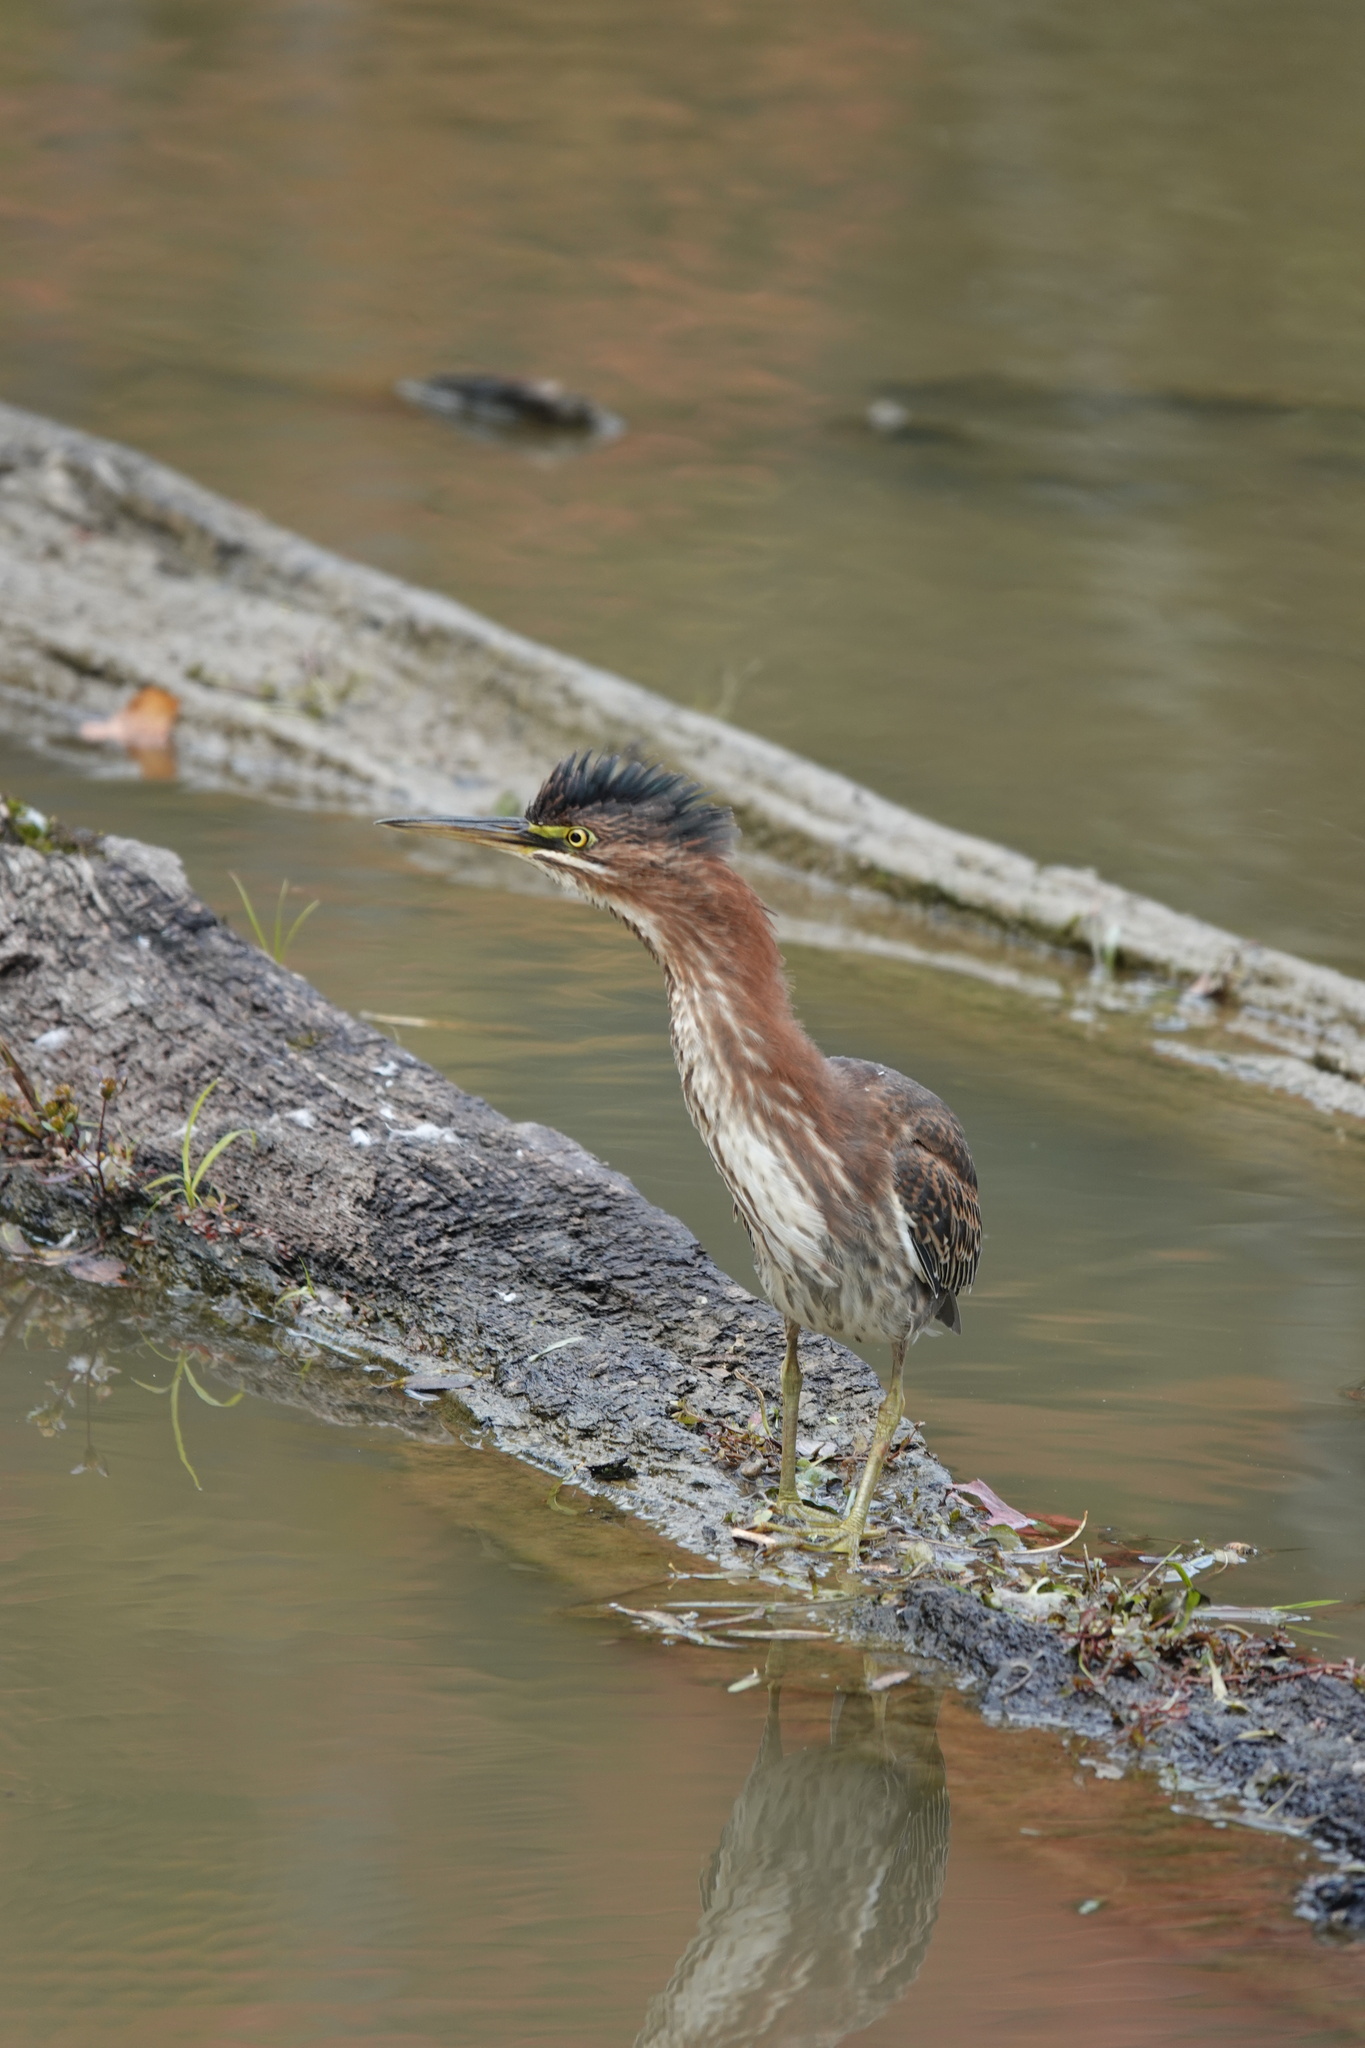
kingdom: Animalia
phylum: Chordata
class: Aves
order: Pelecaniformes
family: Ardeidae
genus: Butorides
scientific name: Butorides virescens
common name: Green heron
